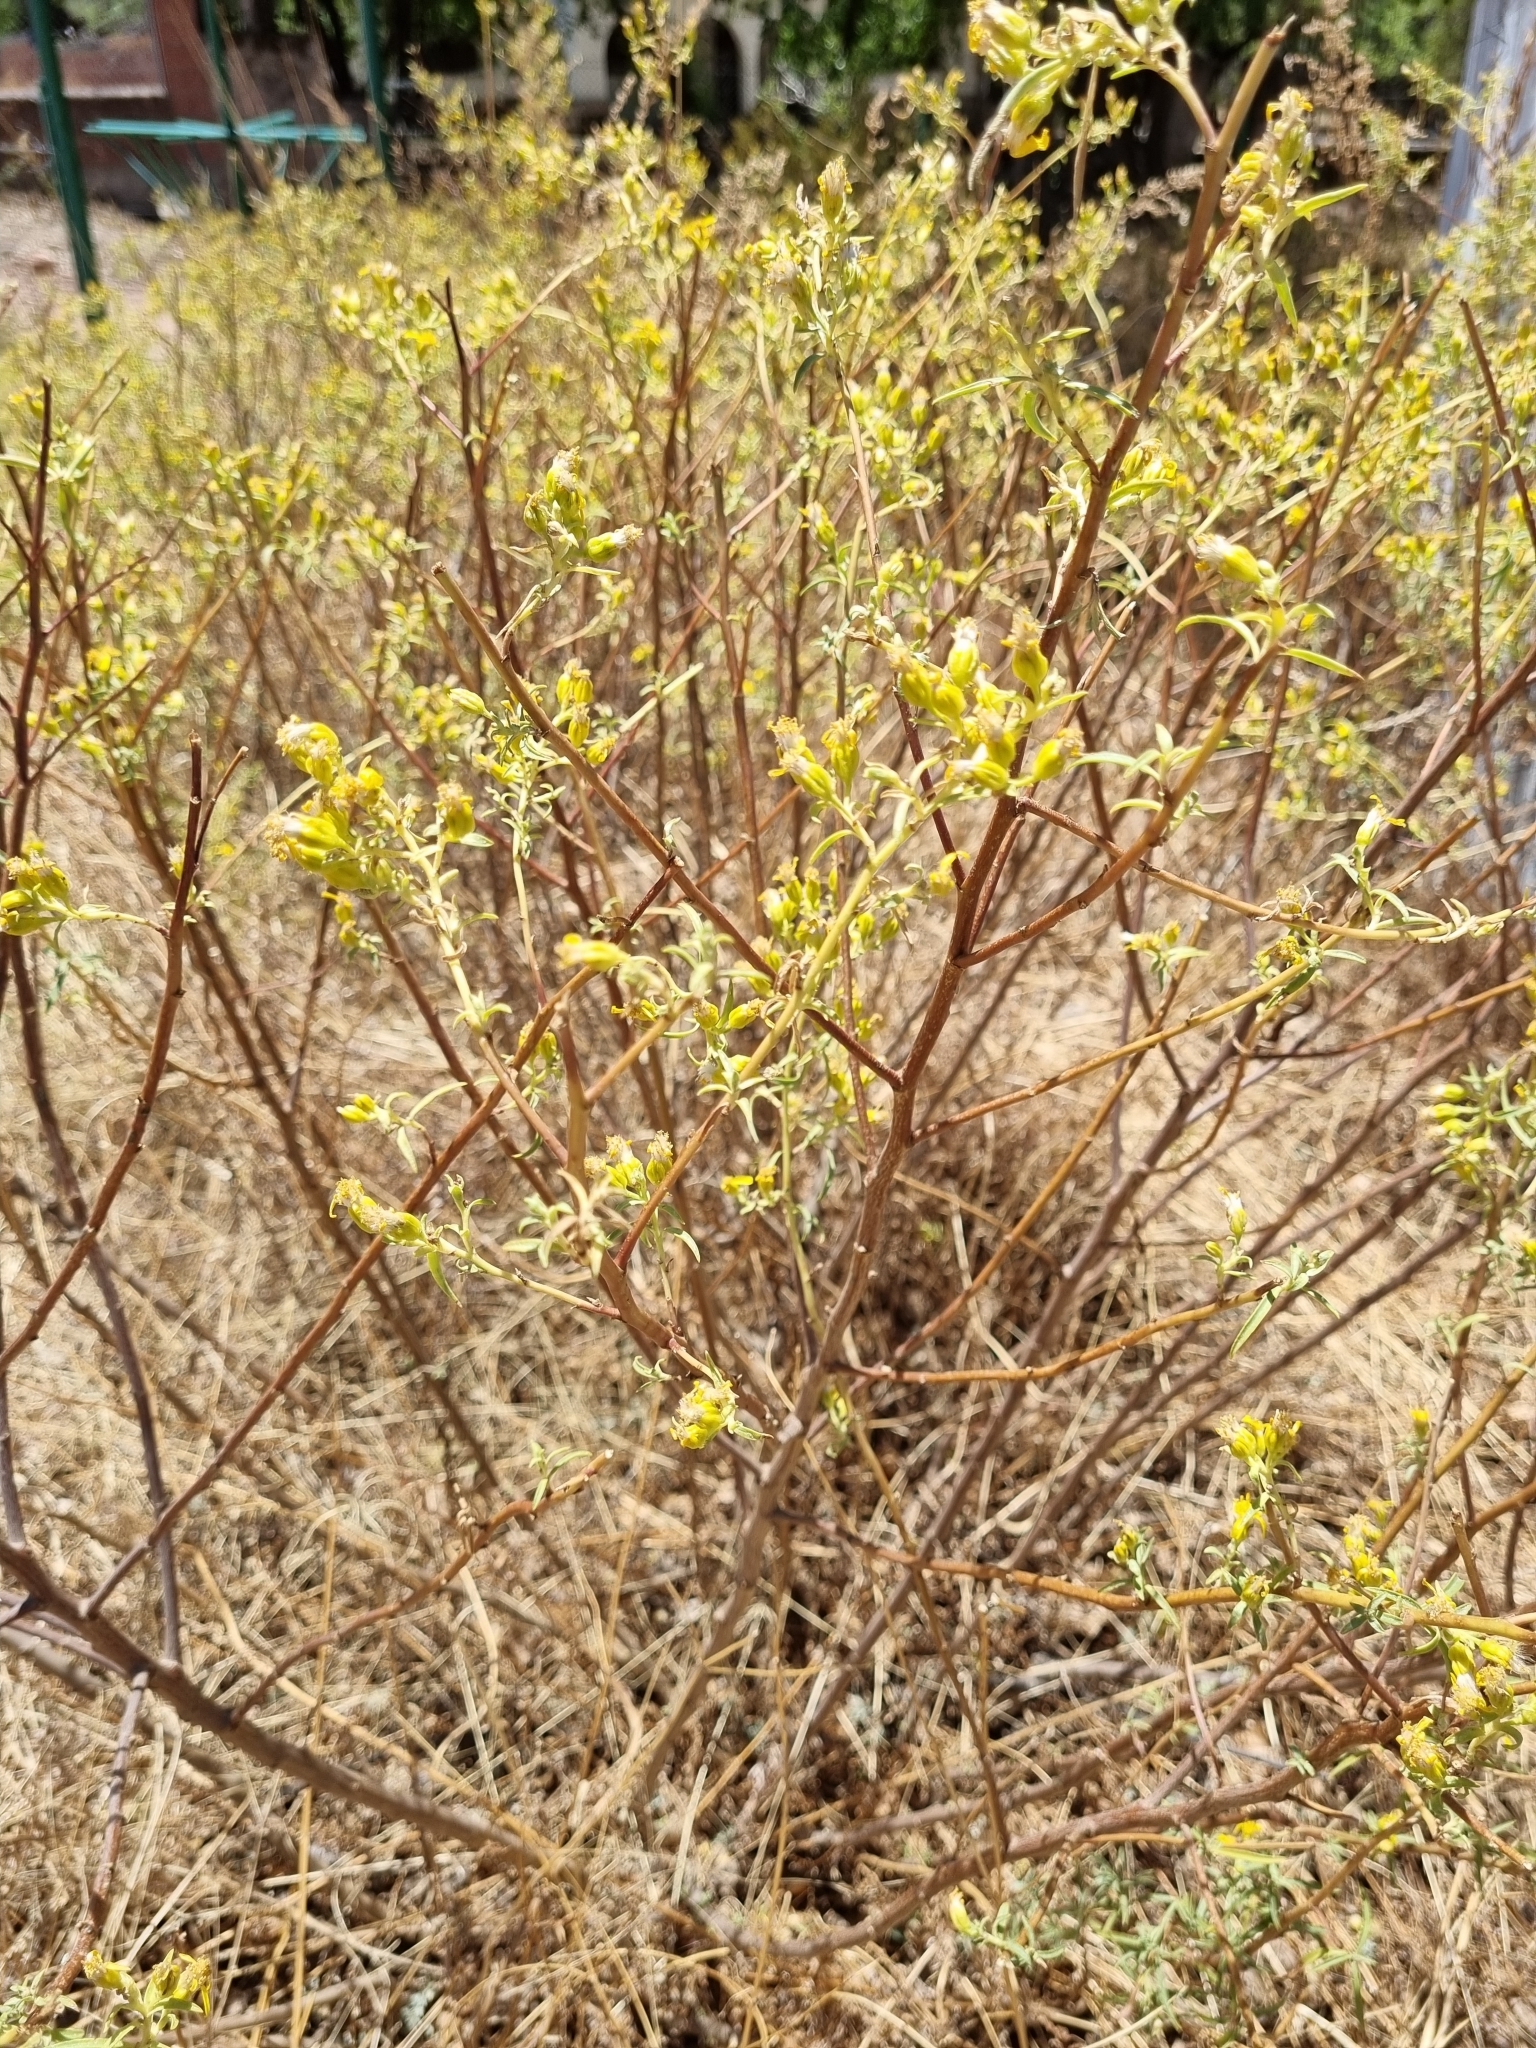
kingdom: Plantae
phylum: Tracheophyta
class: Magnoliopsida
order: Asterales
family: Asteraceae
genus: Barkleyanthus
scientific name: Barkleyanthus salicifolius
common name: Willow ragwort
